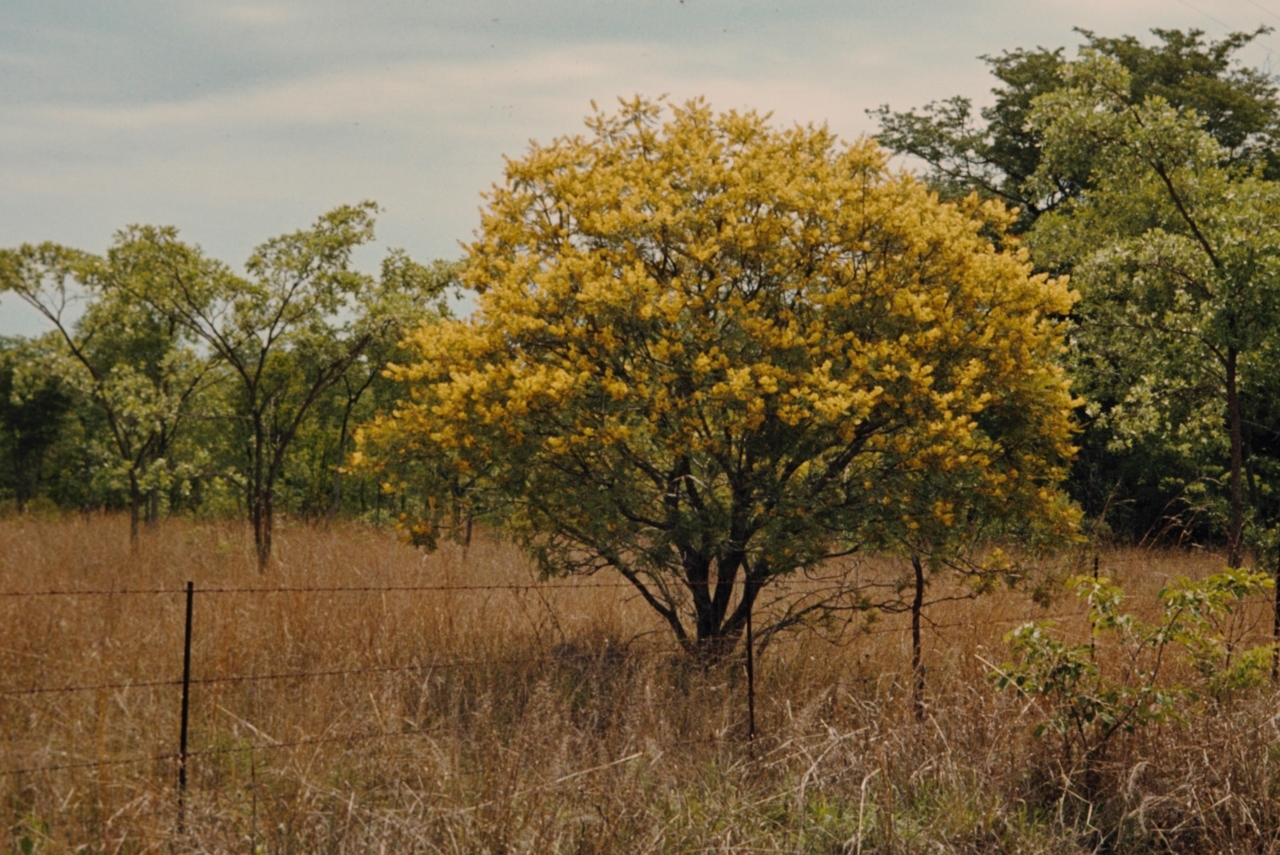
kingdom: Plantae
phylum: Tracheophyta
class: Magnoliopsida
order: Fabales
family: Fabaceae
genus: Peltophorum
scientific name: Peltophorum africanum
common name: African black wattle
